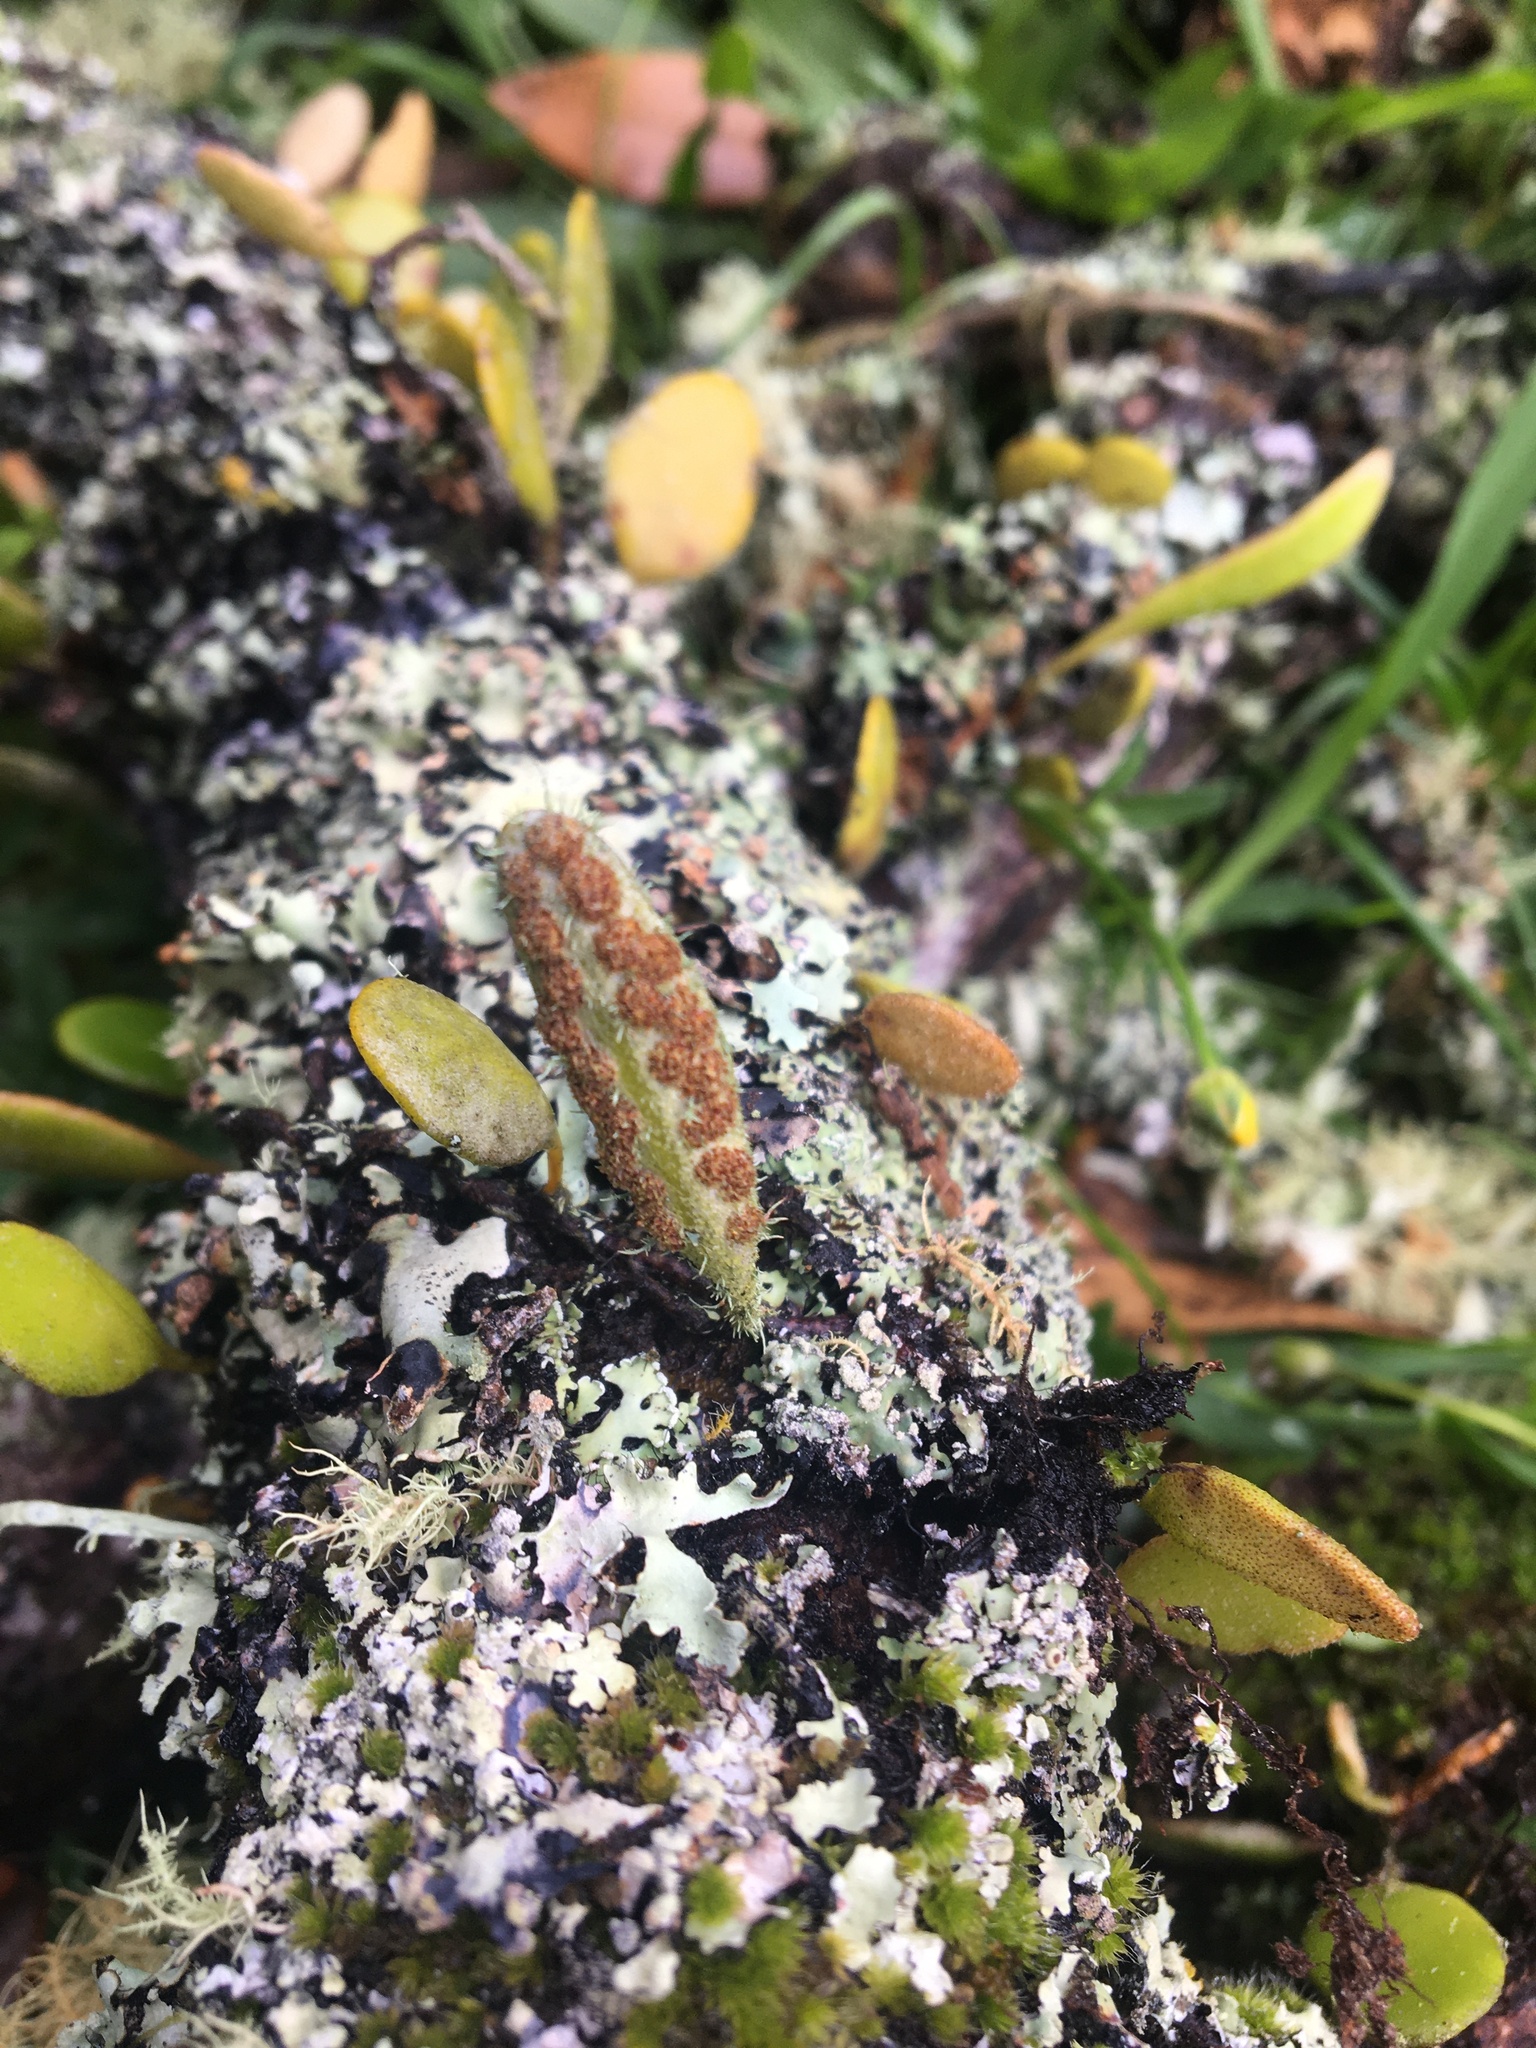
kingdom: Plantae
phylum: Tracheophyta
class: Polypodiopsida
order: Polypodiales
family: Polypodiaceae
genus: Pyrrosia
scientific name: Pyrrosia eleagnifolia
